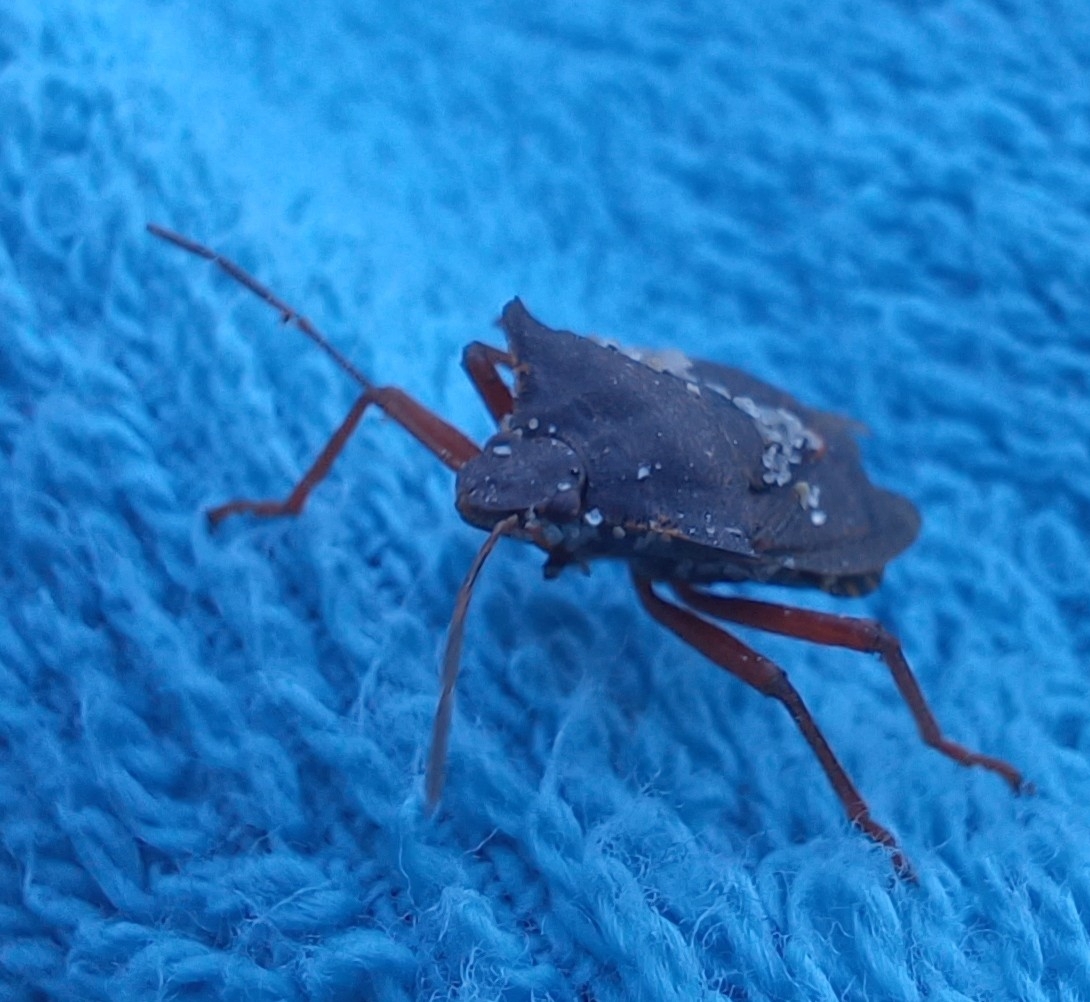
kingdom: Animalia
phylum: Arthropoda
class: Insecta
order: Hemiptera
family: Pentatomidae
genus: Pentatoma
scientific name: Pentatoma rufipes
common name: Forest bug
